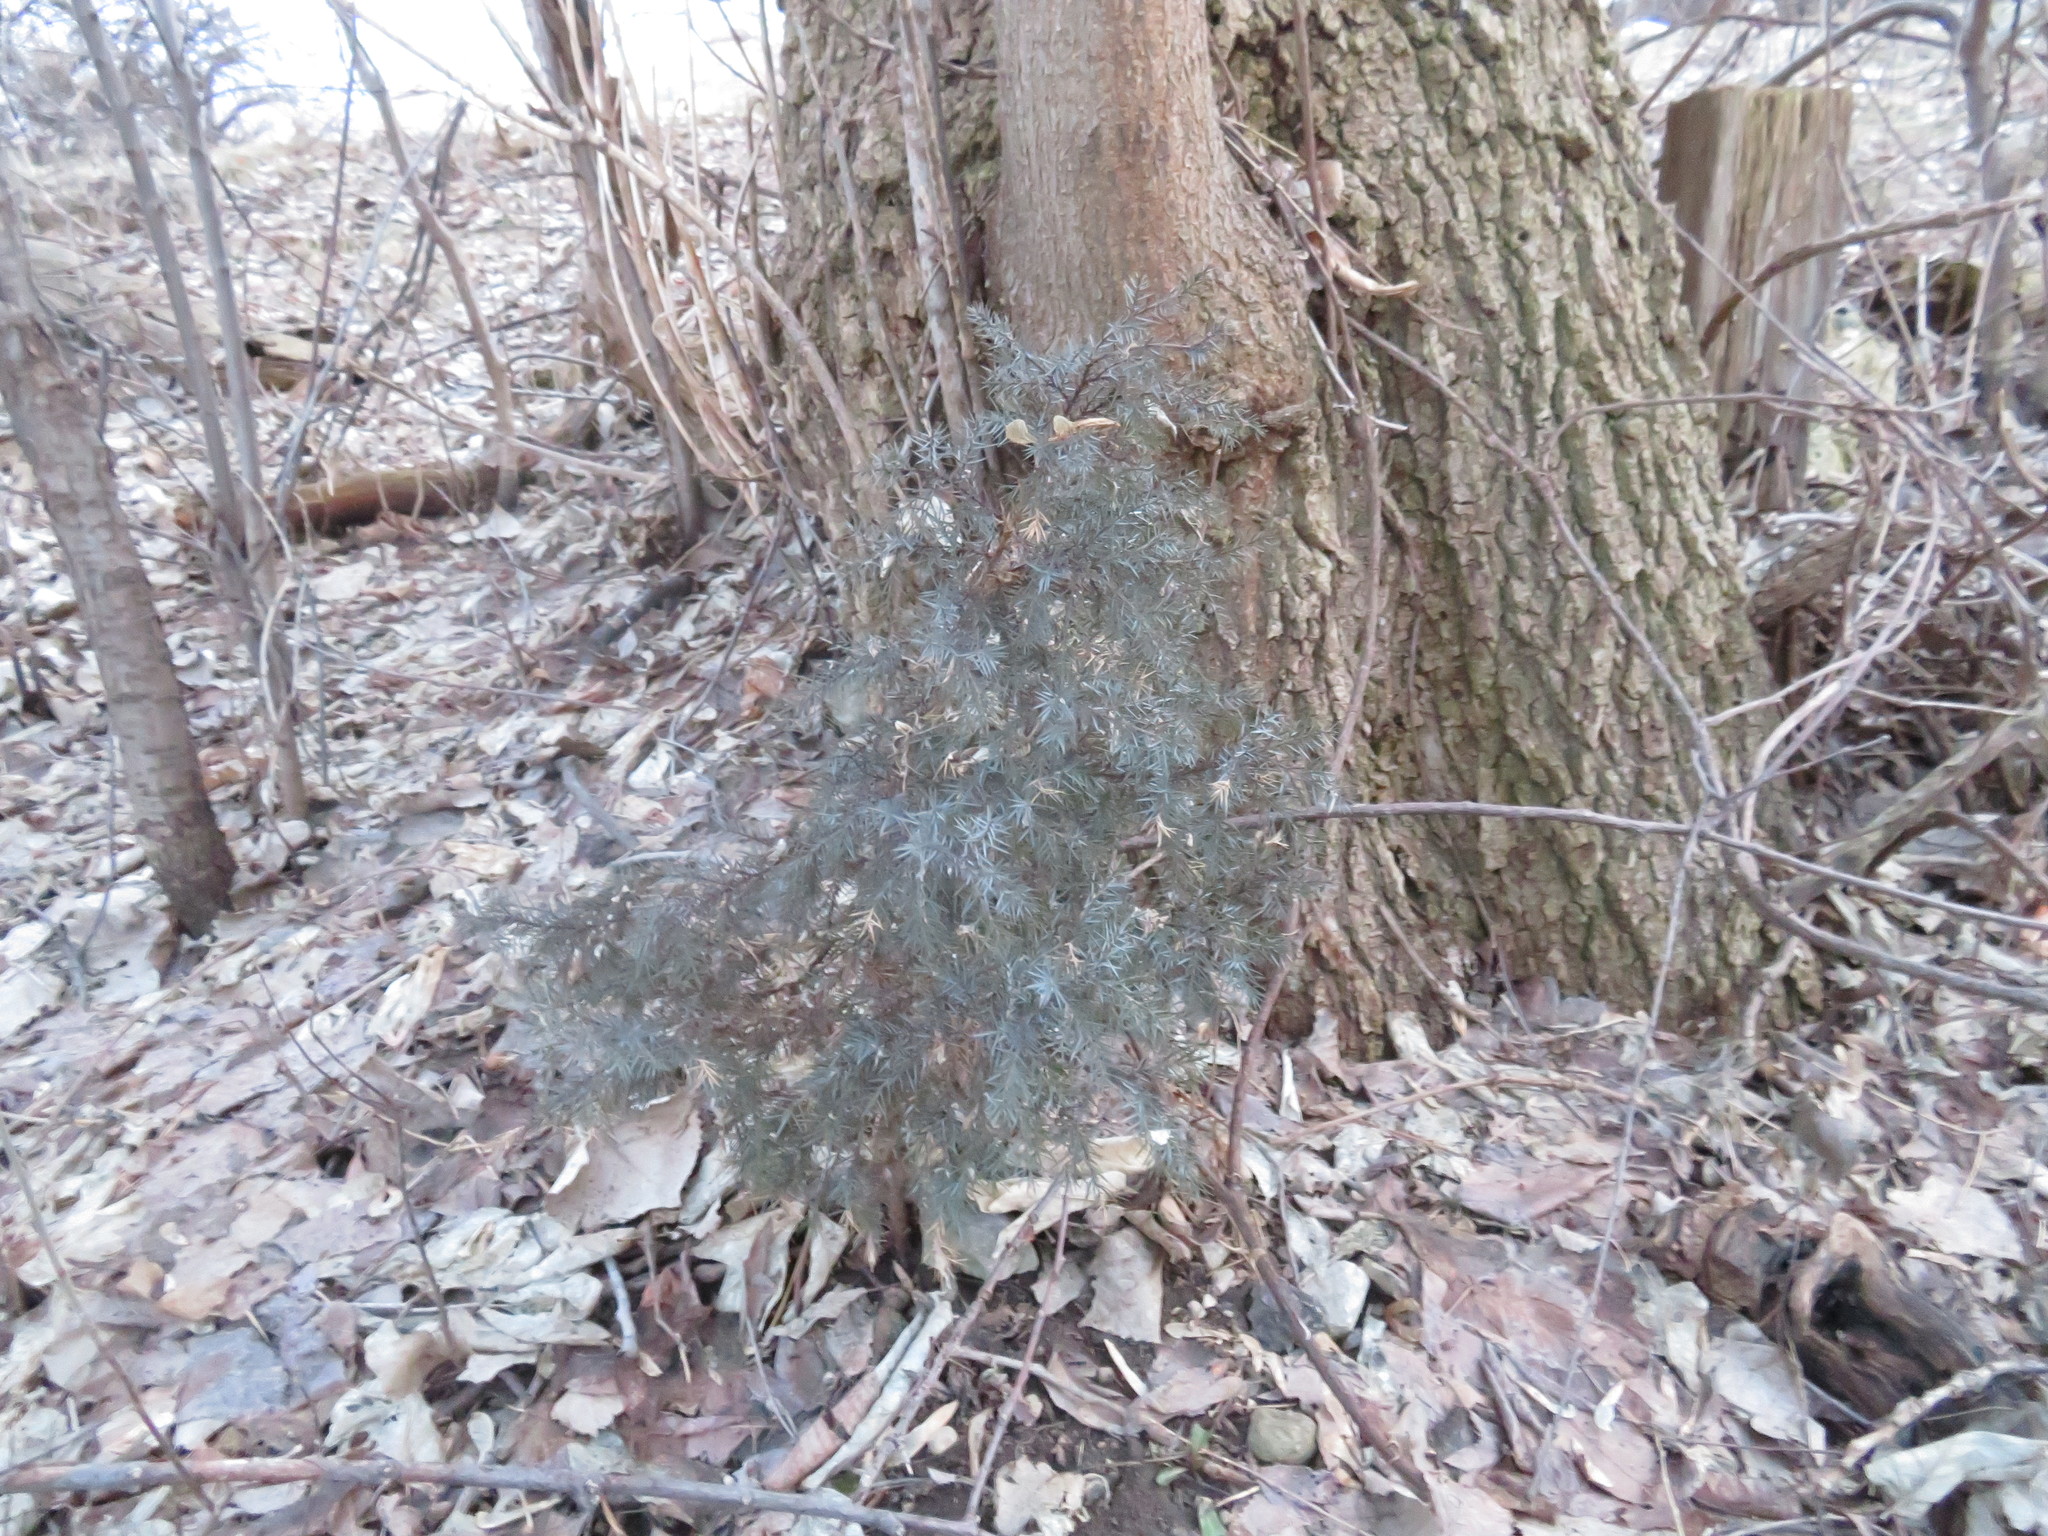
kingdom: Plantae
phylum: Tracheophyta
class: Pinopsida
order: Pinales
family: Cupressaceae
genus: Juniperus
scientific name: Juniperus virginiana
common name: Red juniper
